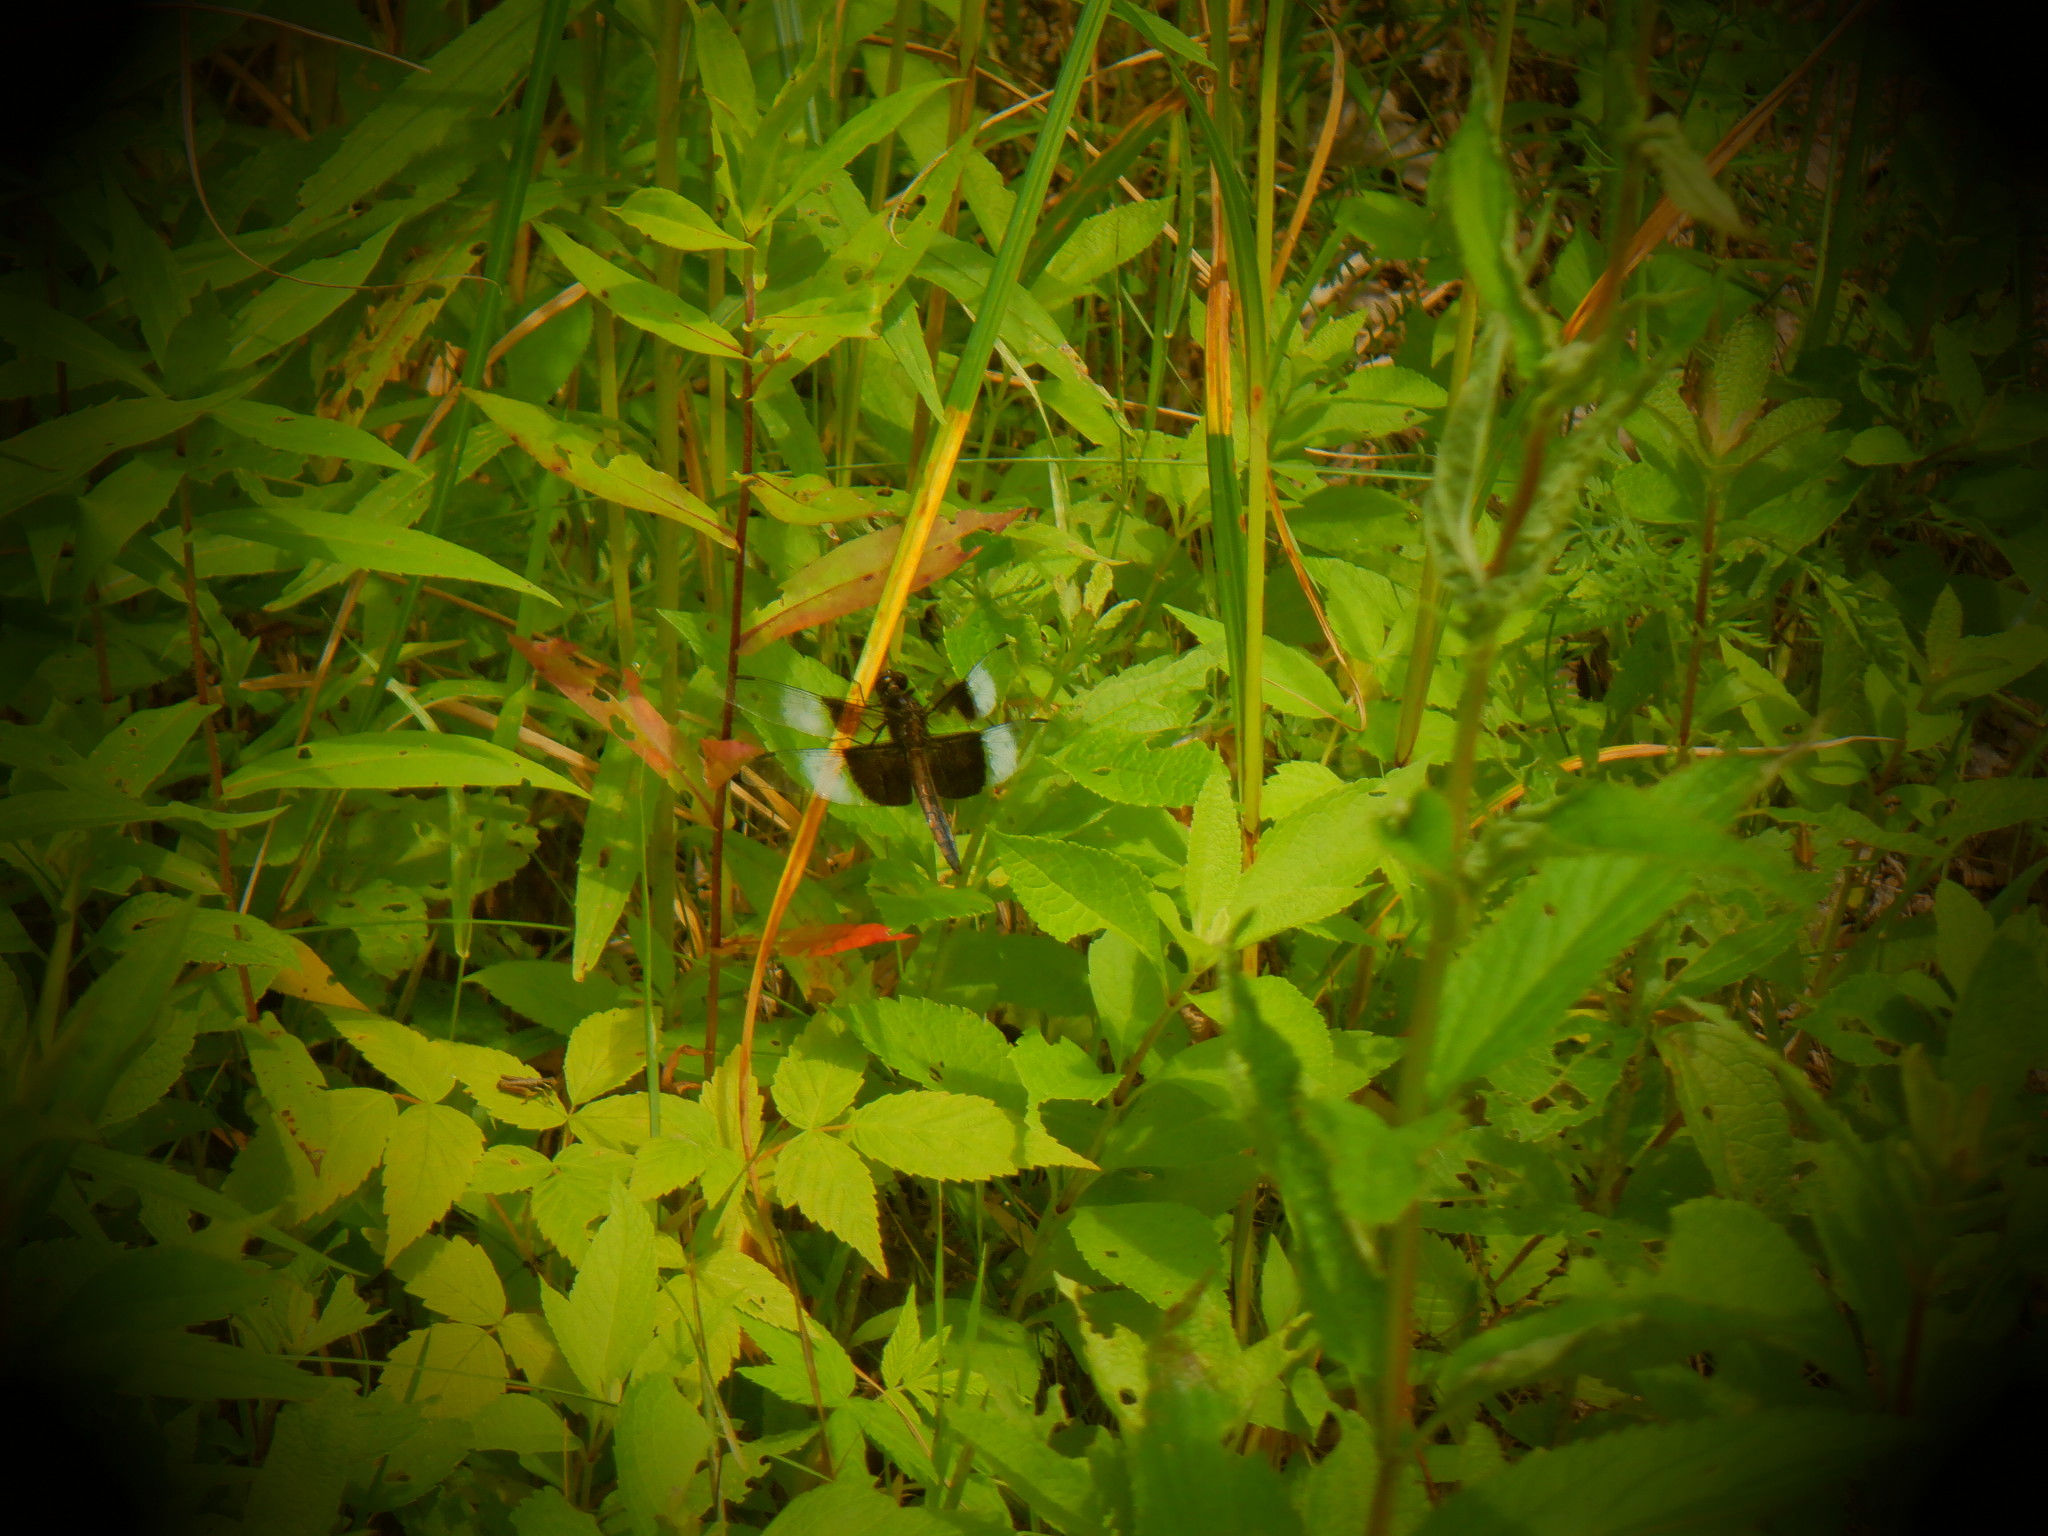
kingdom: Animalia
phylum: Arthropoda
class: Insecta
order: Odonata
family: Libellulidae
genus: Libellula
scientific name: Libellula luctuosa
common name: Widow skimmer
